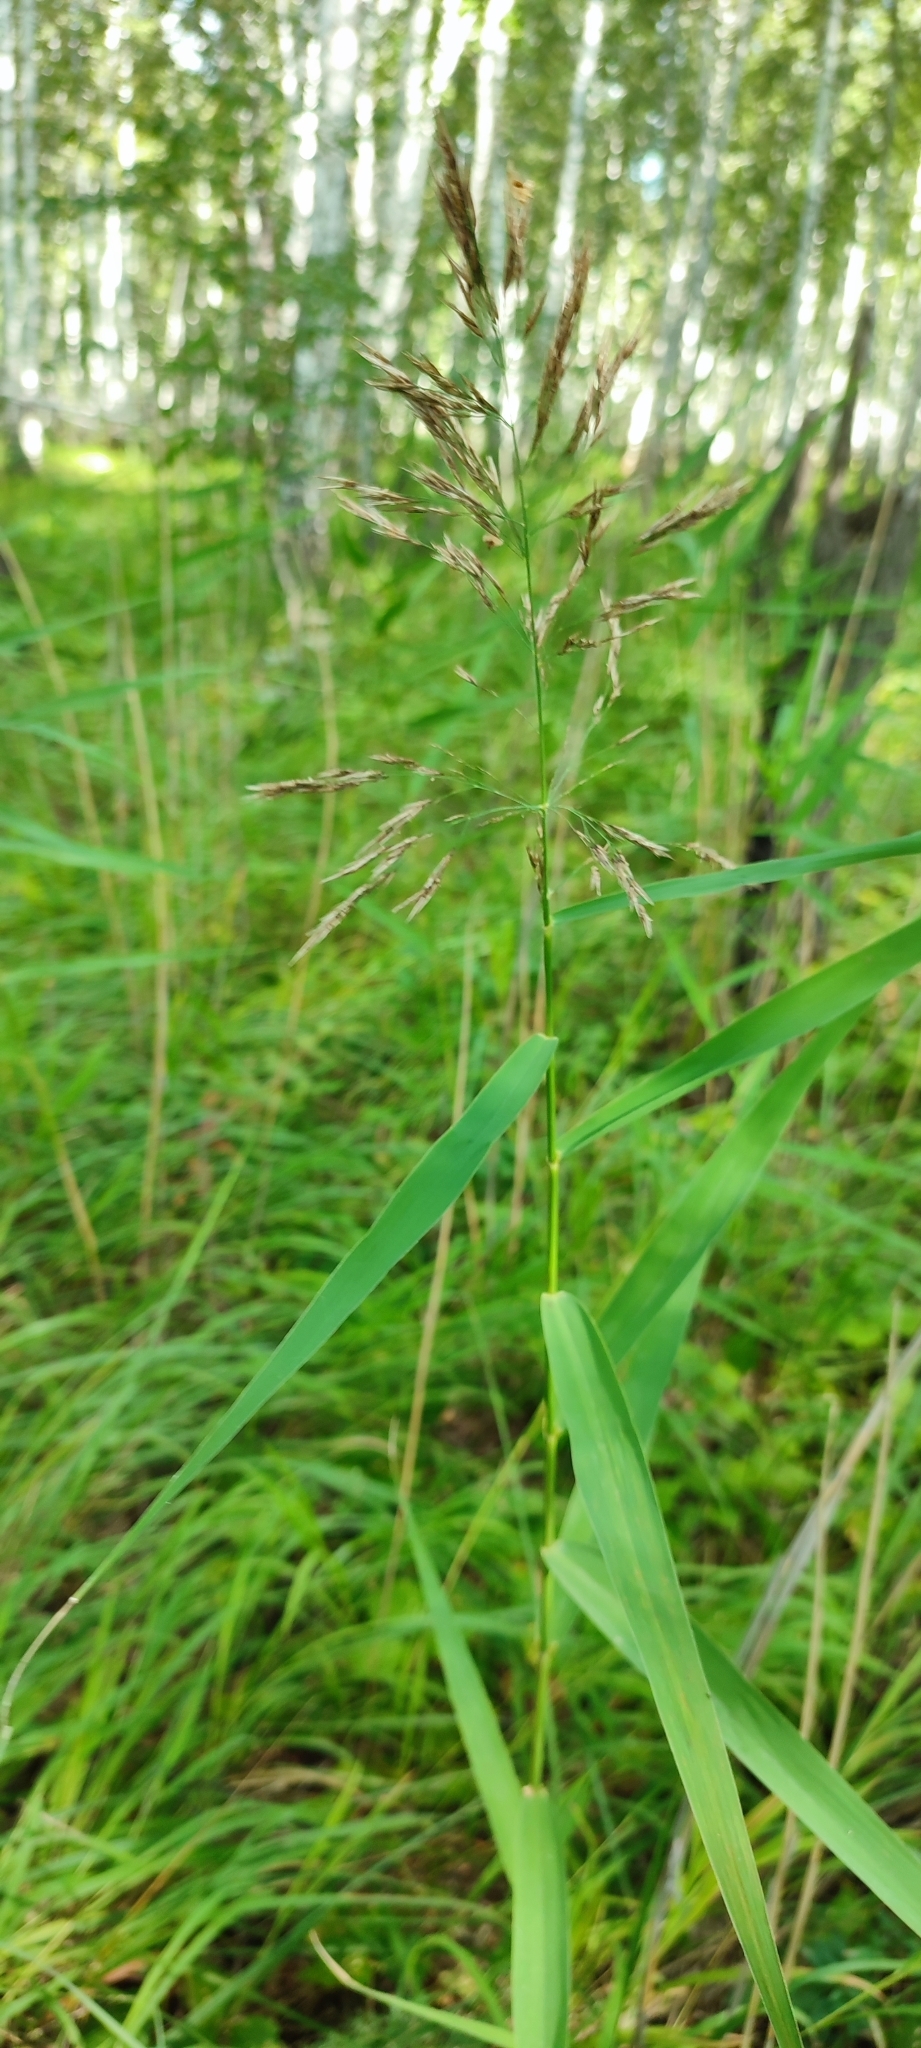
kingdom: Plantae
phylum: Tracheophyta
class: Liliopsida
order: Poales
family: Poaceae
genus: Phragmites
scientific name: Phragmites australis
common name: Common reed
